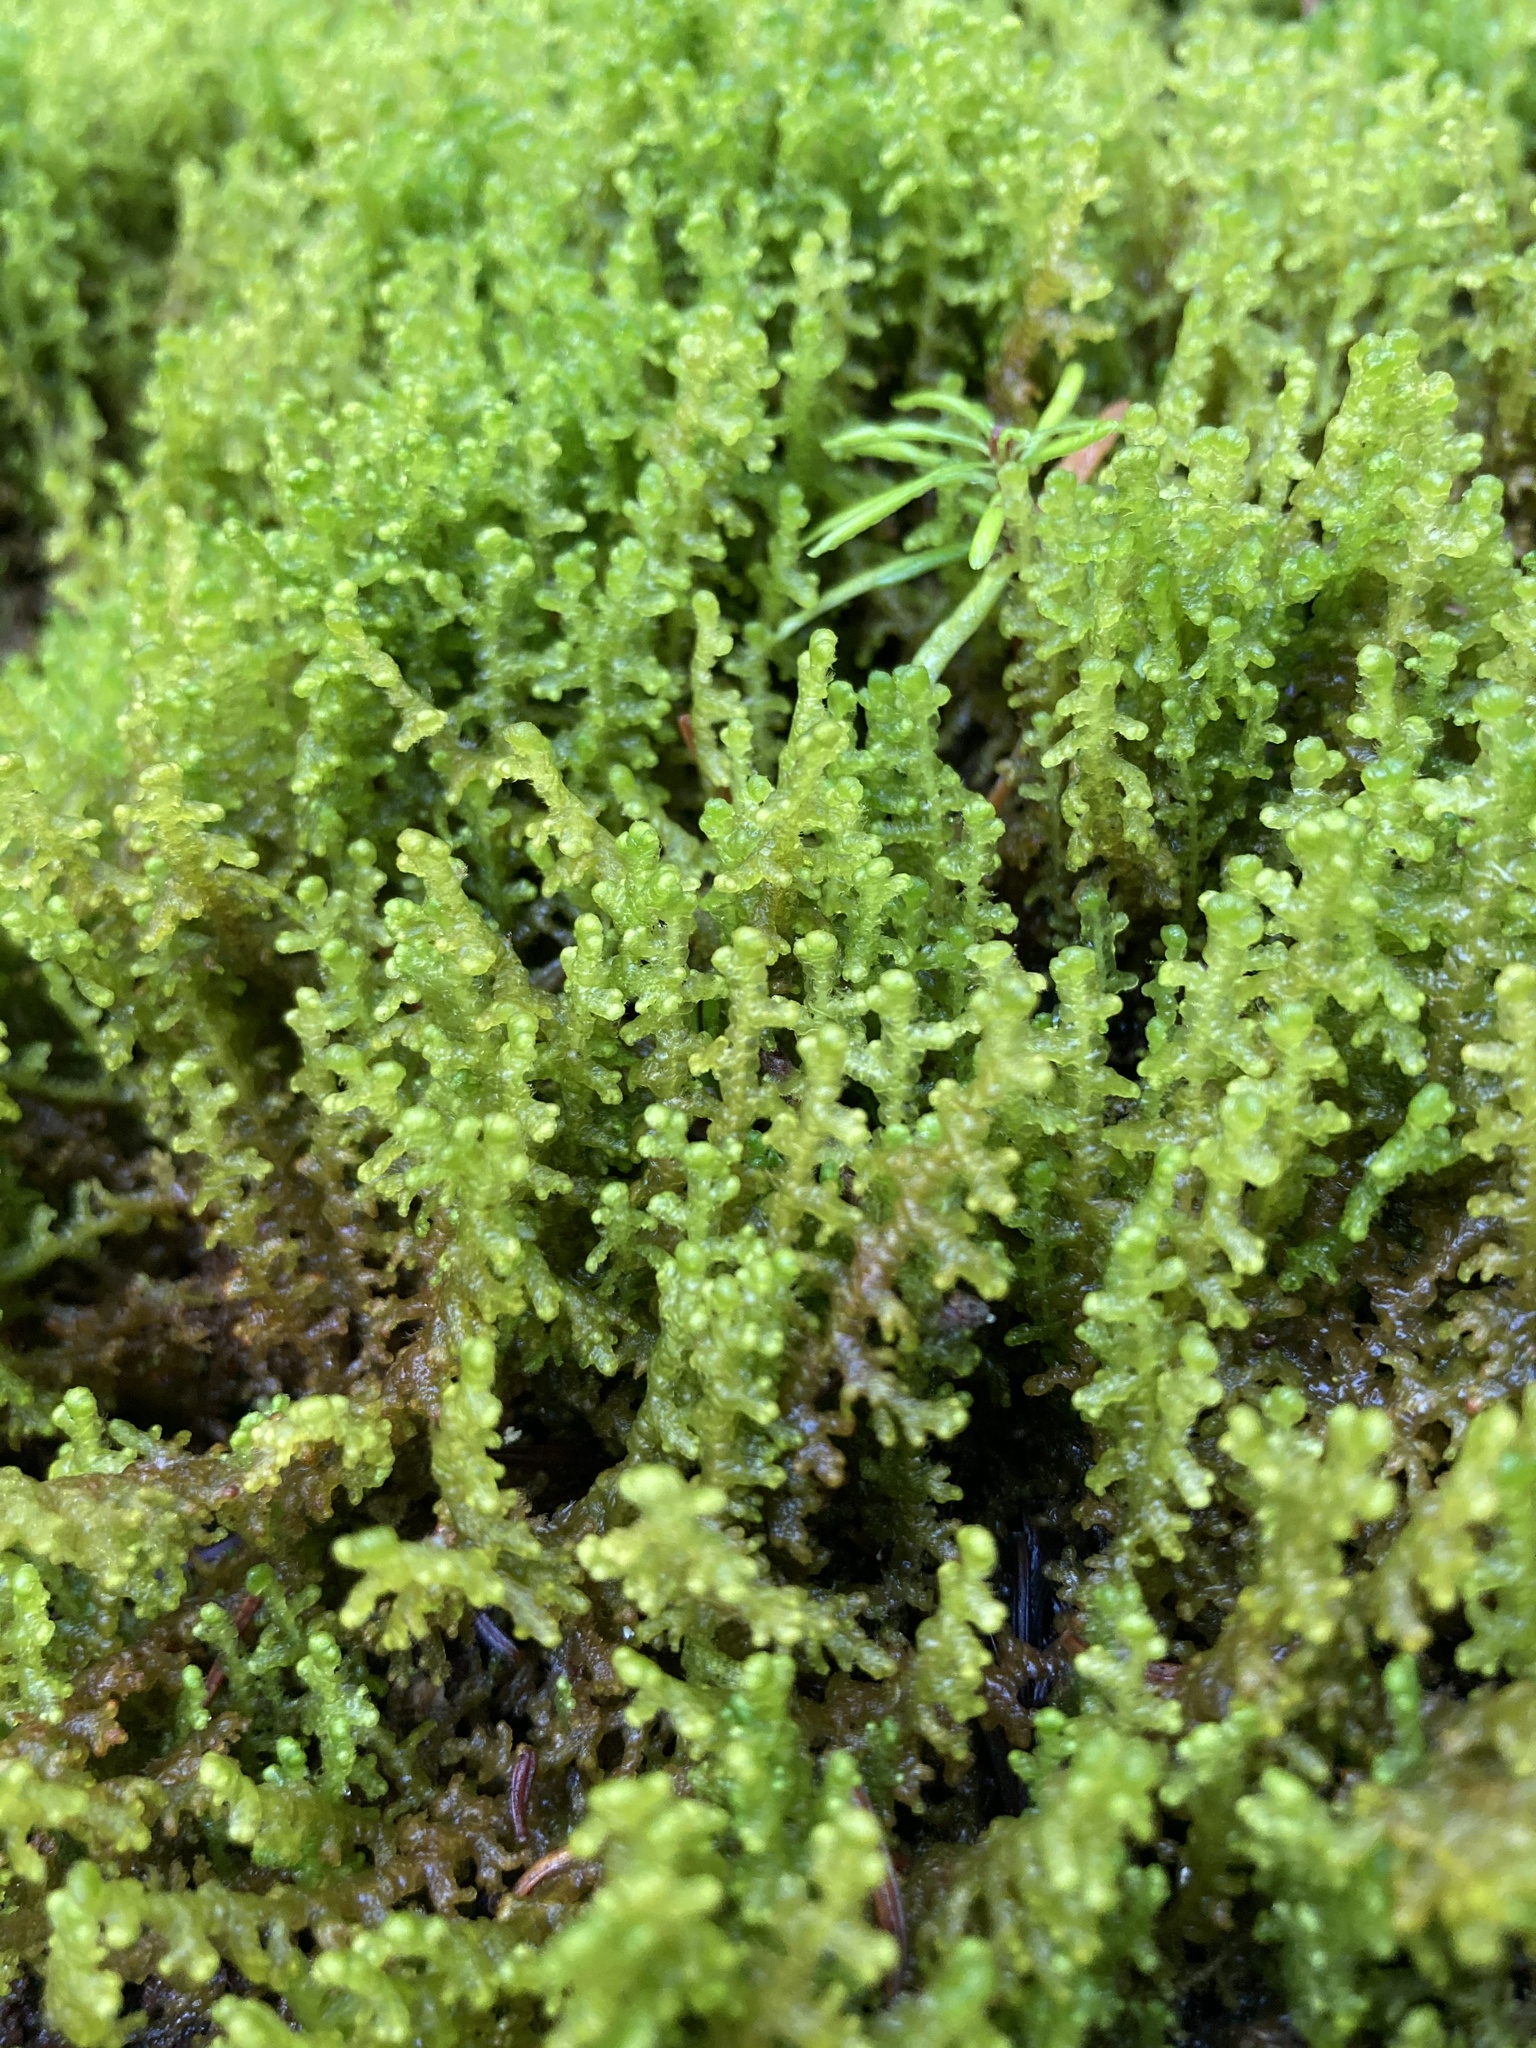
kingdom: Plantae
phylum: Marchantiophyta
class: Jungermanniopsida
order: Ptilidiales
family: Ptilidiaceae
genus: Ptilidium
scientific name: Ptilidium ciliare
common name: Ciliate fringewort
